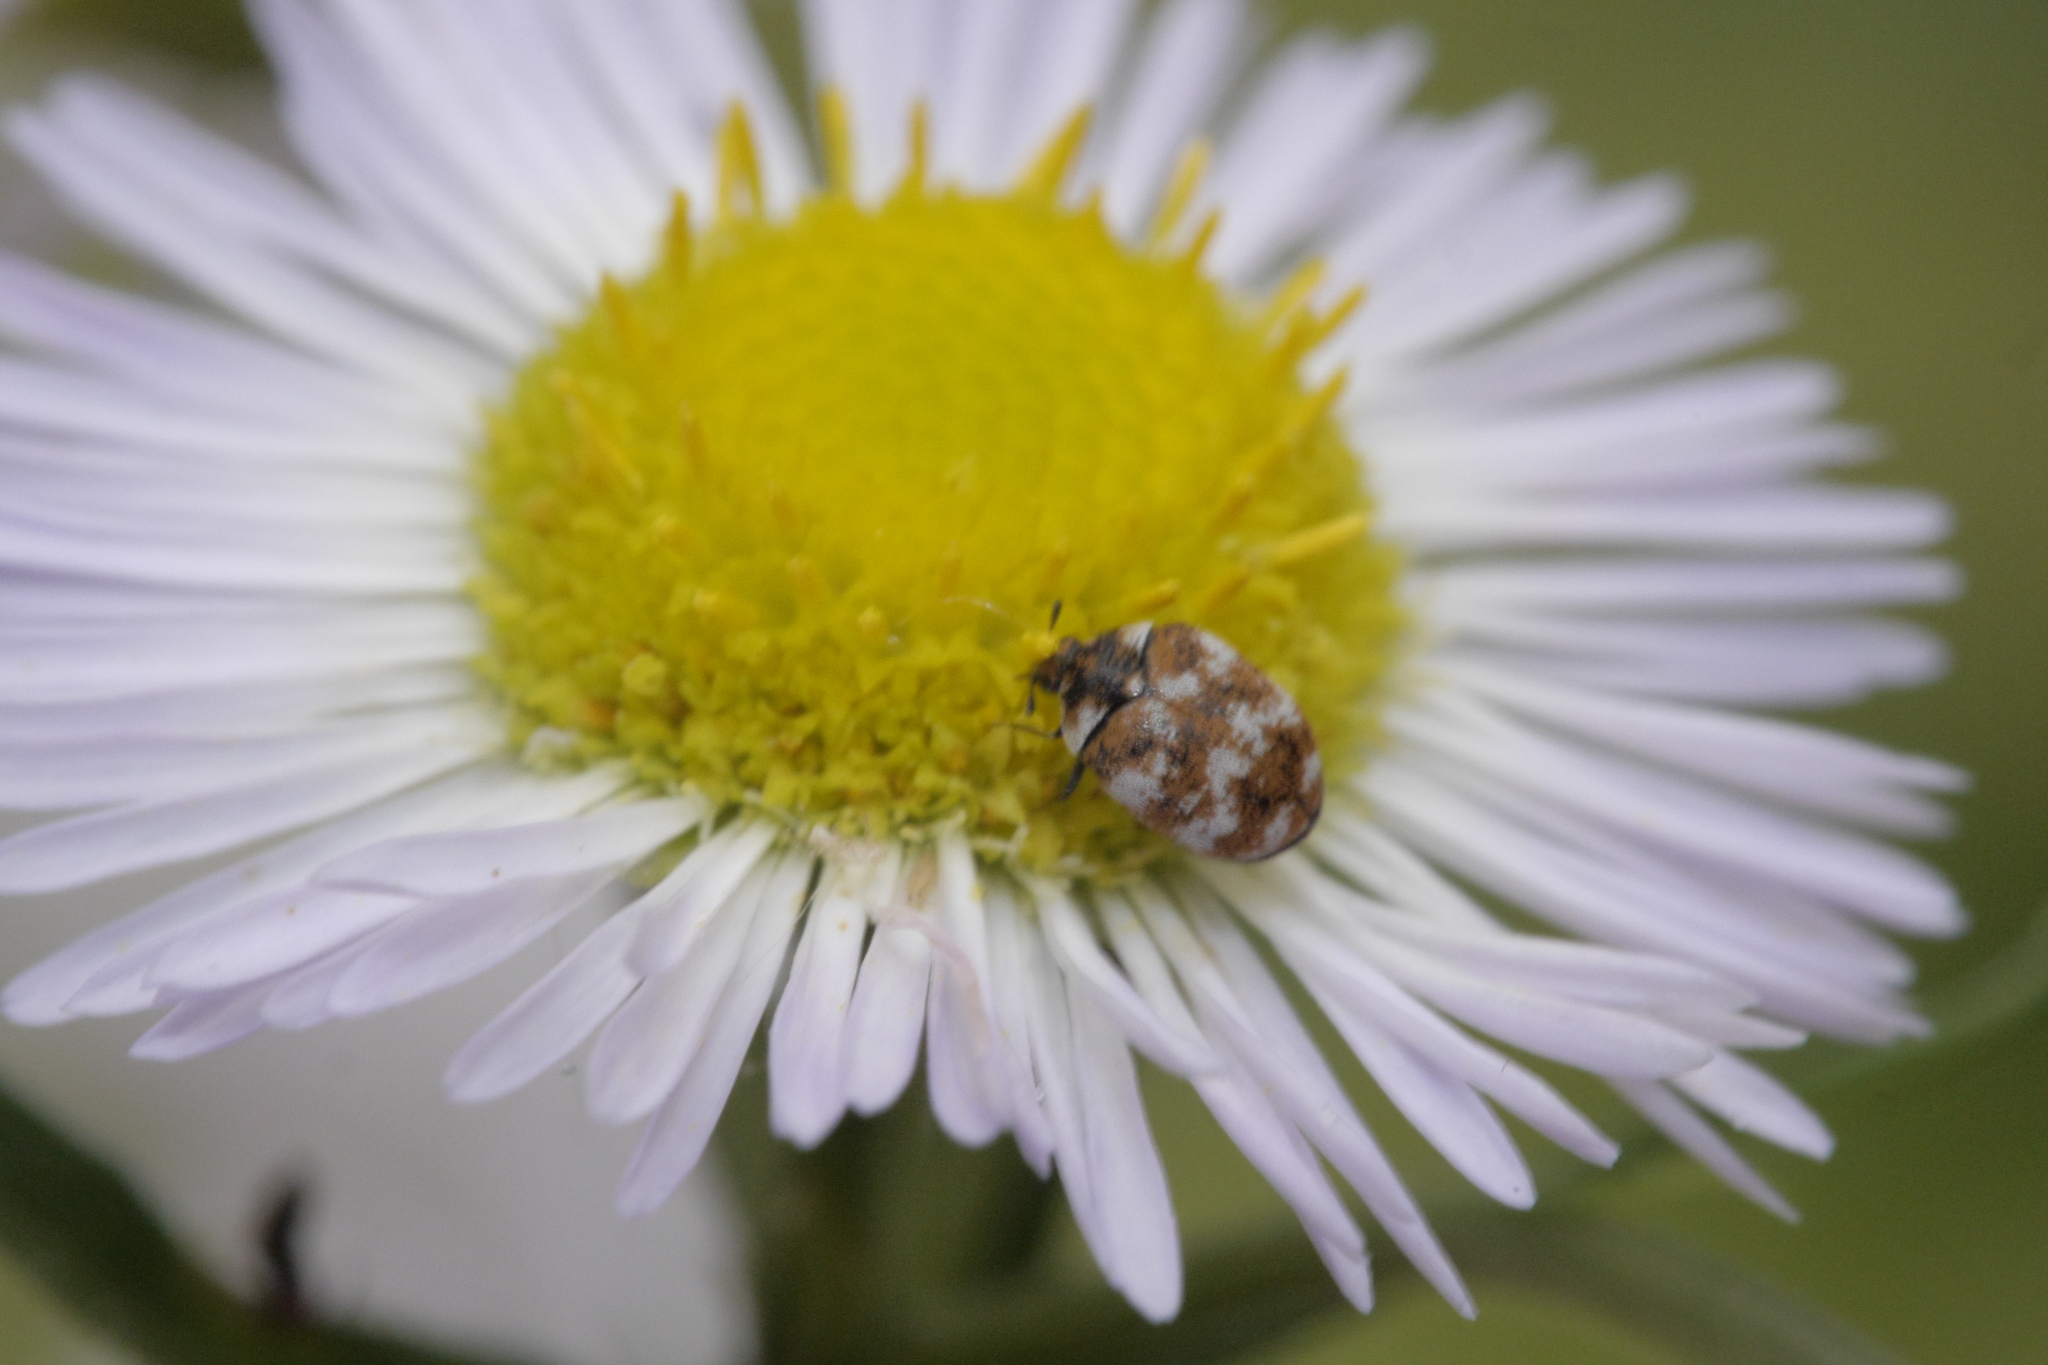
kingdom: Animalia
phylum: Arthropoda
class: Insecta
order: Coleoptera
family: Dermestidae
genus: Anthrenus
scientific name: Anthrenus verbasci
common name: Varied carpet beetle
